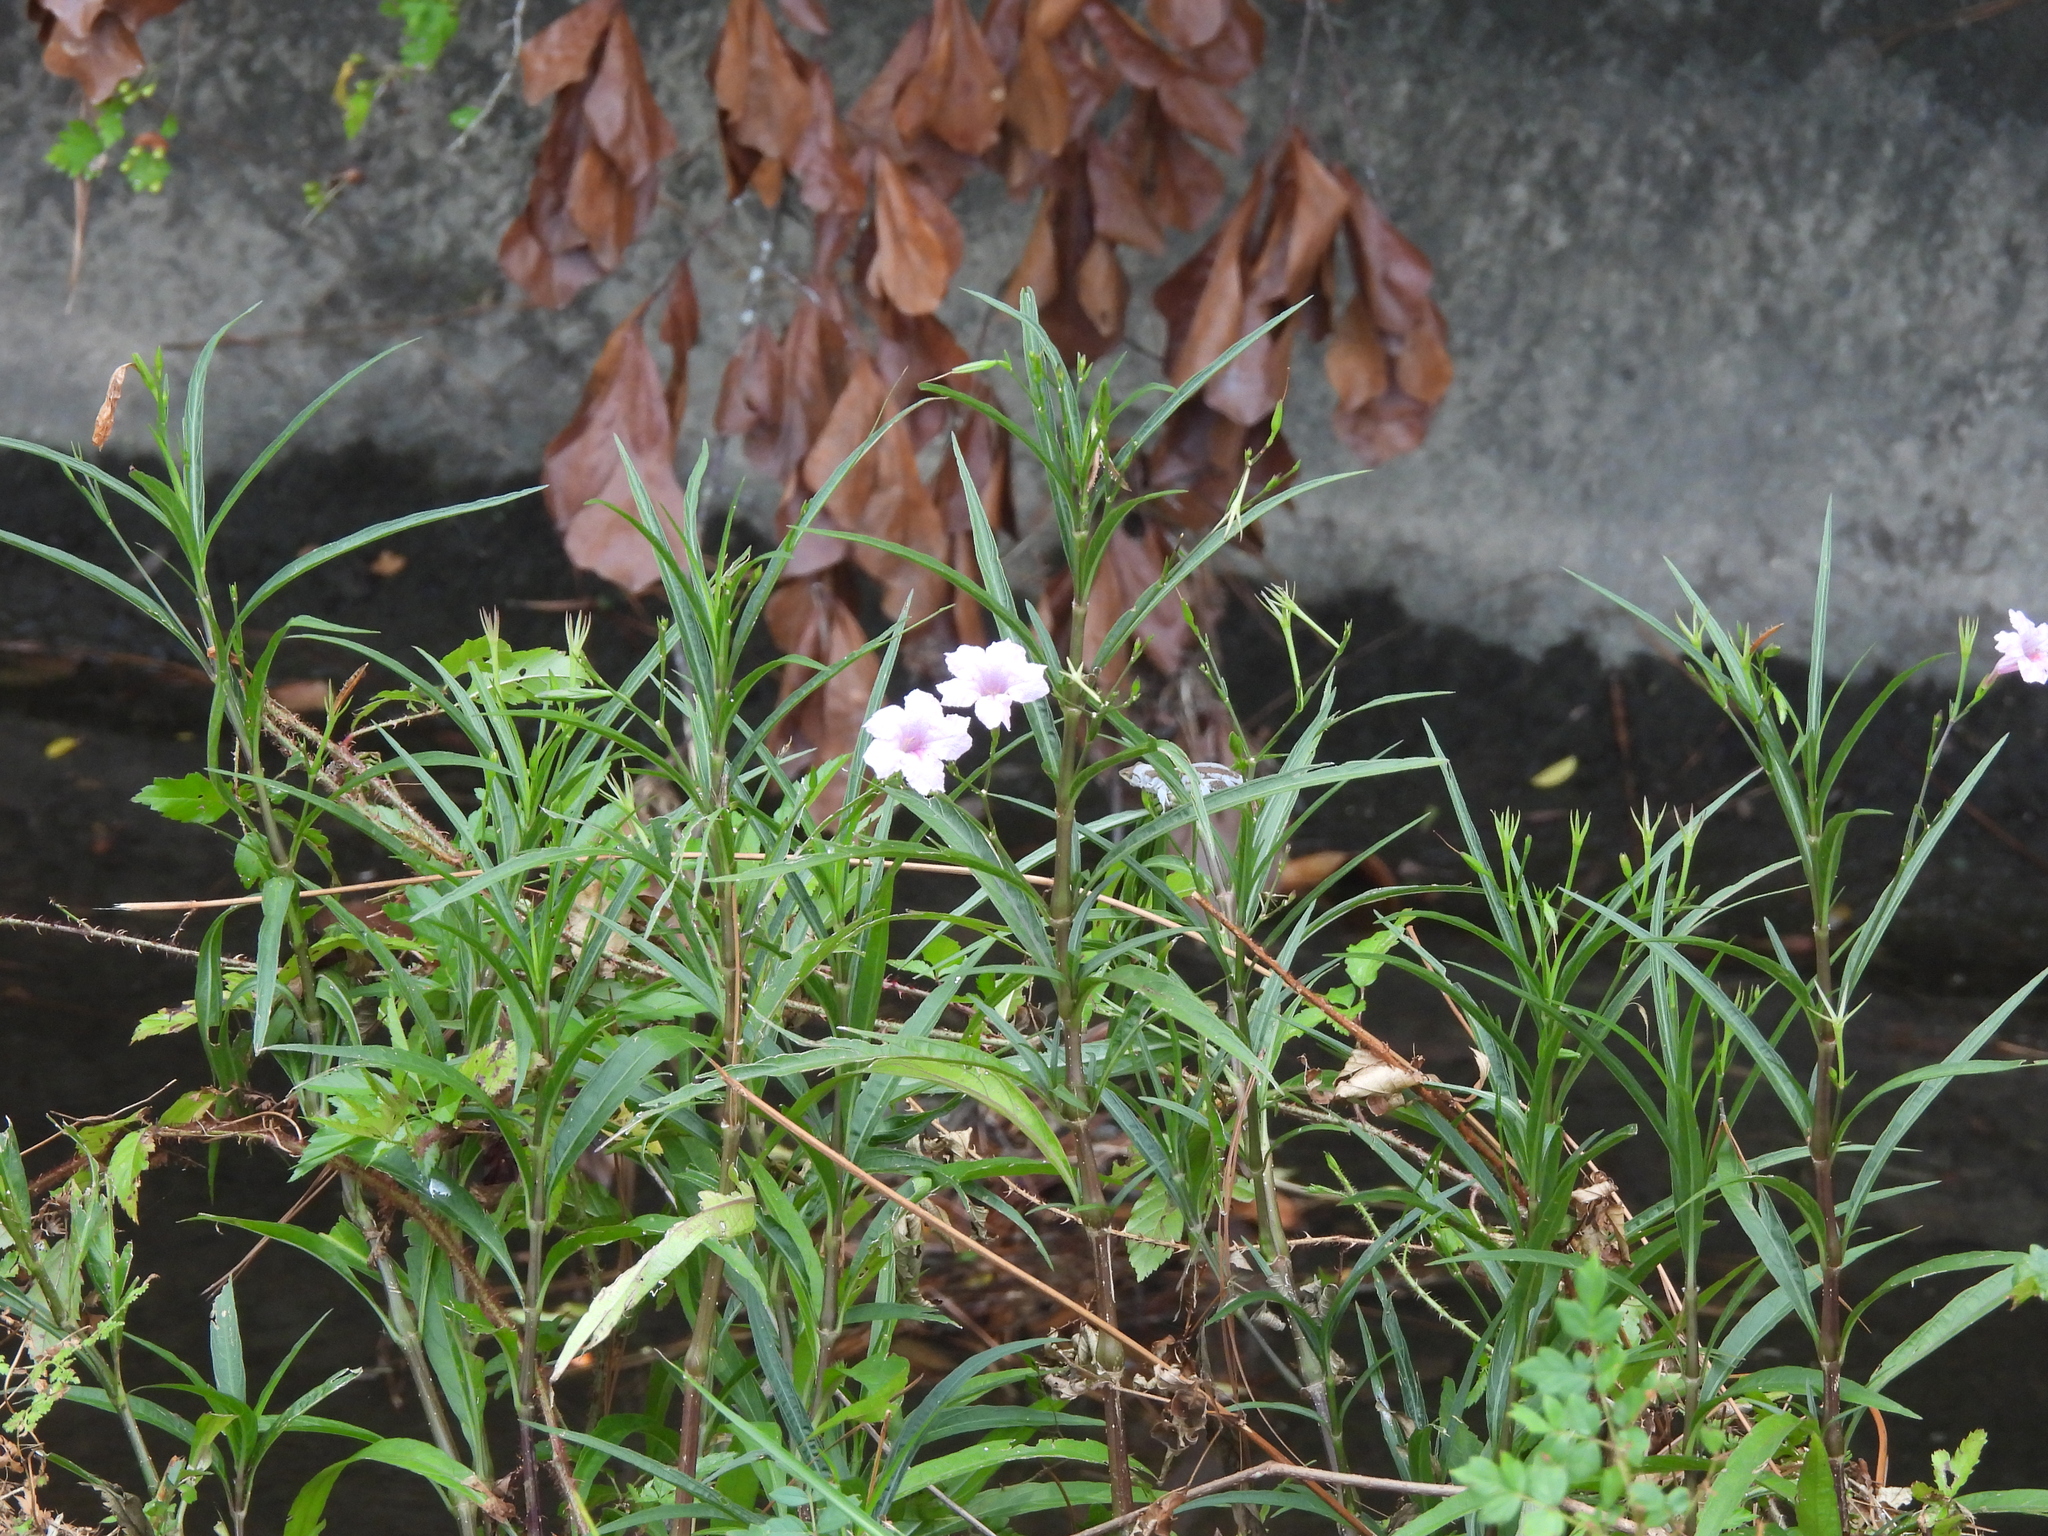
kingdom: Plantae
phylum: Tracheophyta
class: Magnoliopsida
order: Lamiales
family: Acanthaceae
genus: Ruellia
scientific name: Ruellia simplex
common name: Softseed wild petunia
